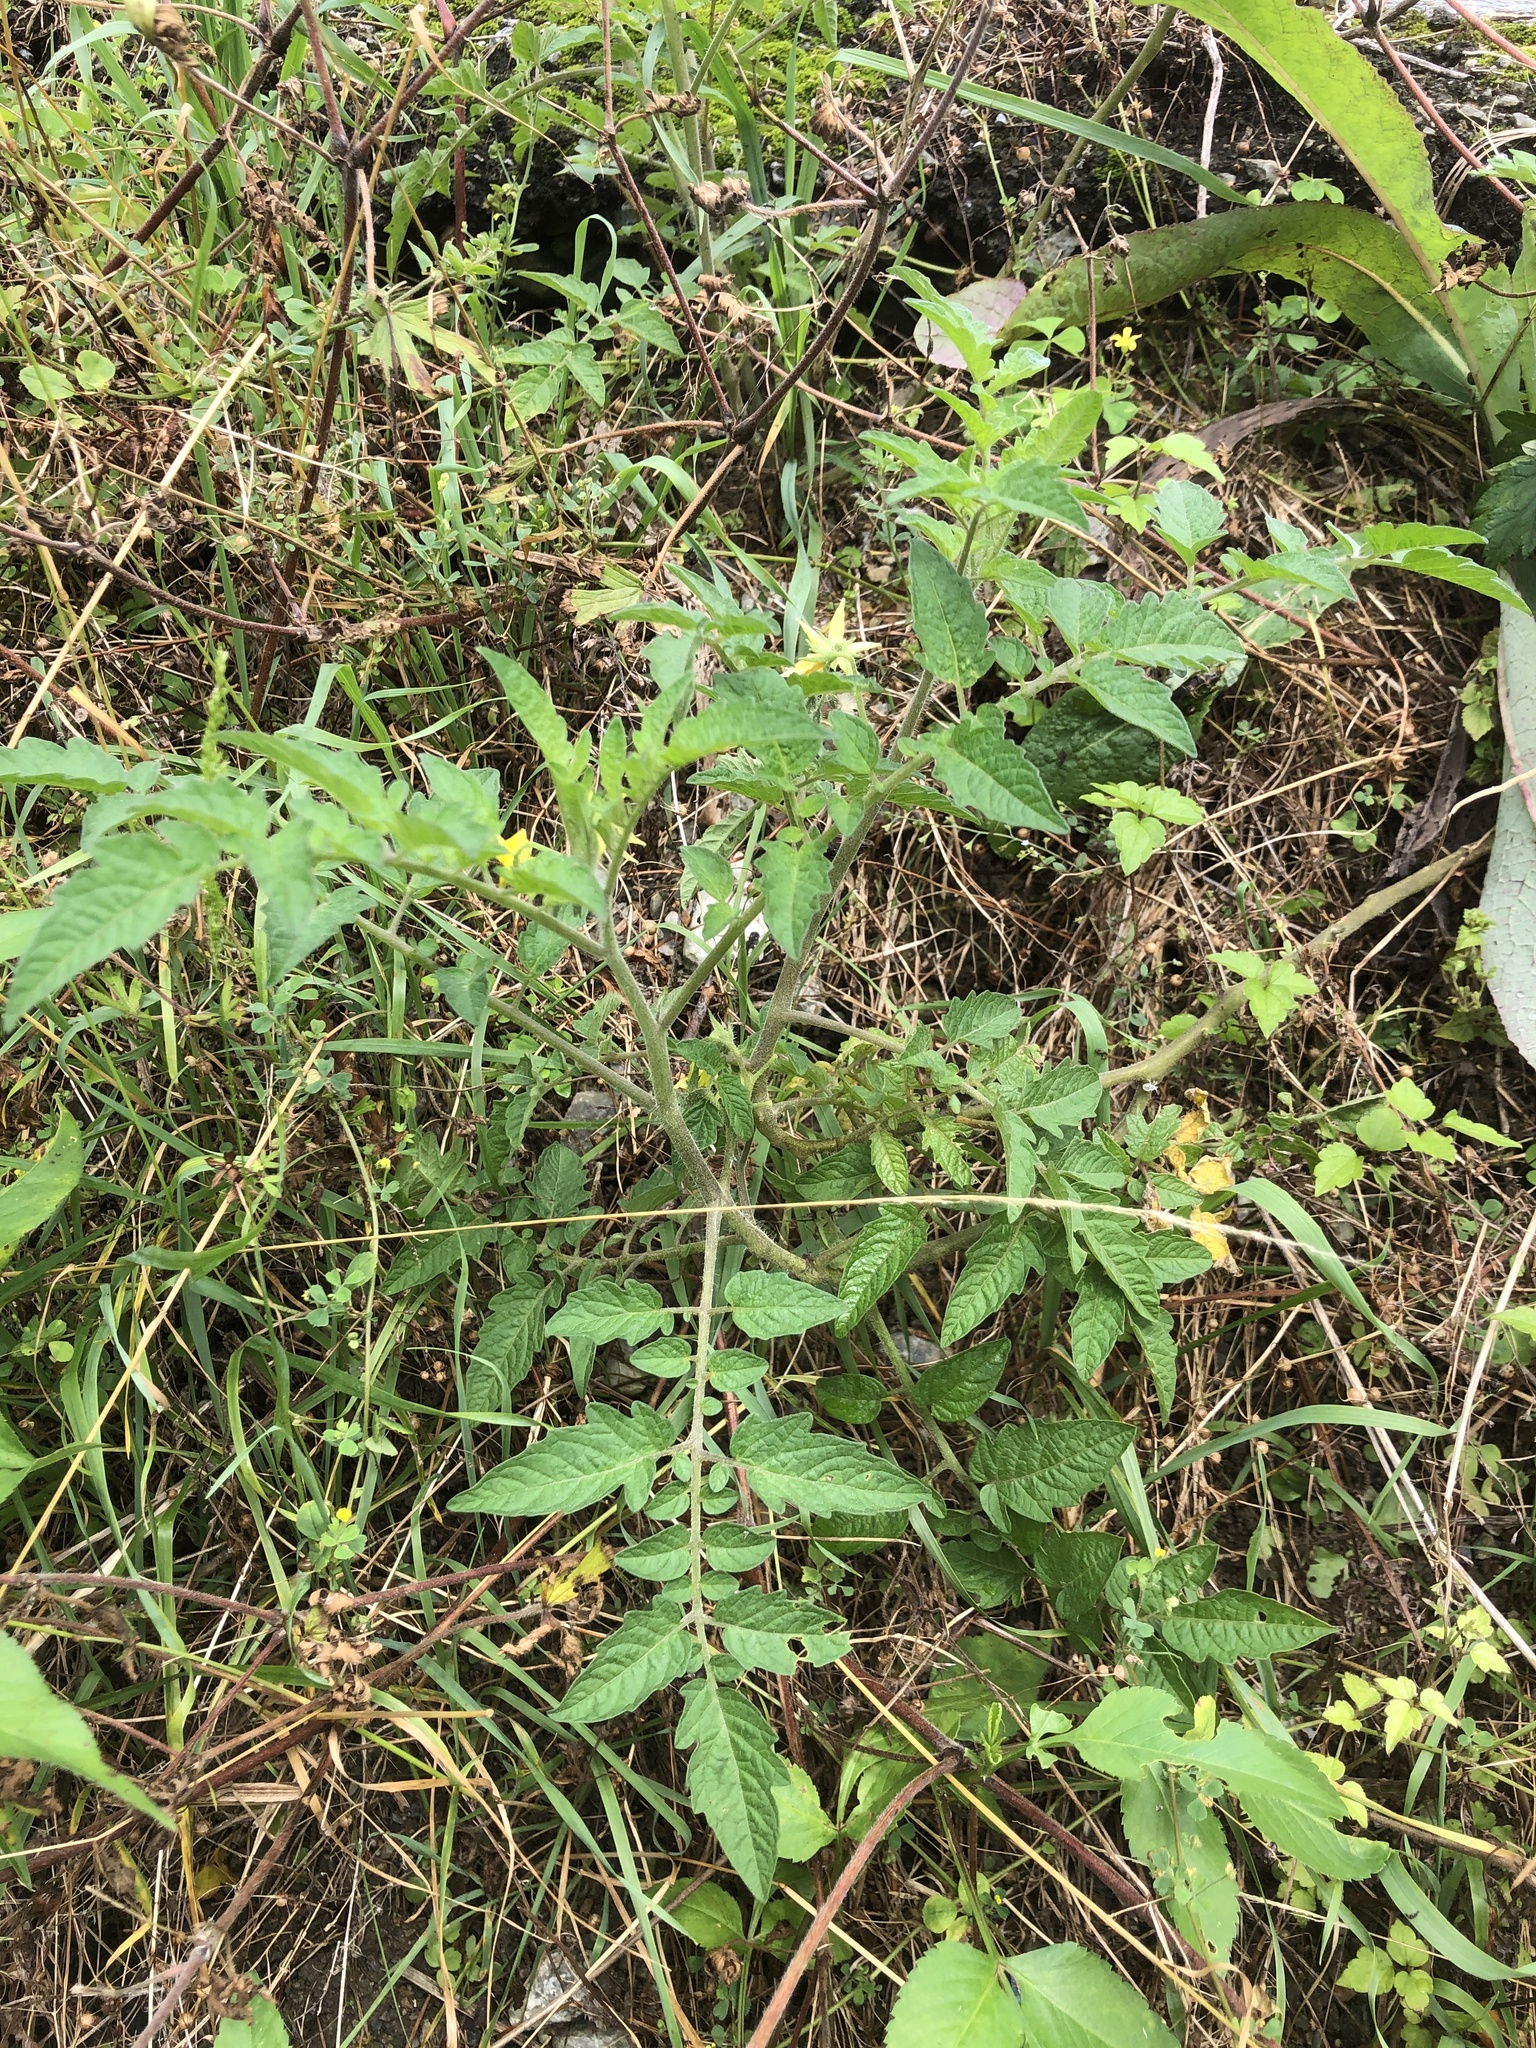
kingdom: Plantae
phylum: Tracheophyta
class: Magnoliopsida
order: Solanales
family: Solanaceae
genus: Solanum
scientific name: Solanum lycopersicum
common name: Garden tomato
